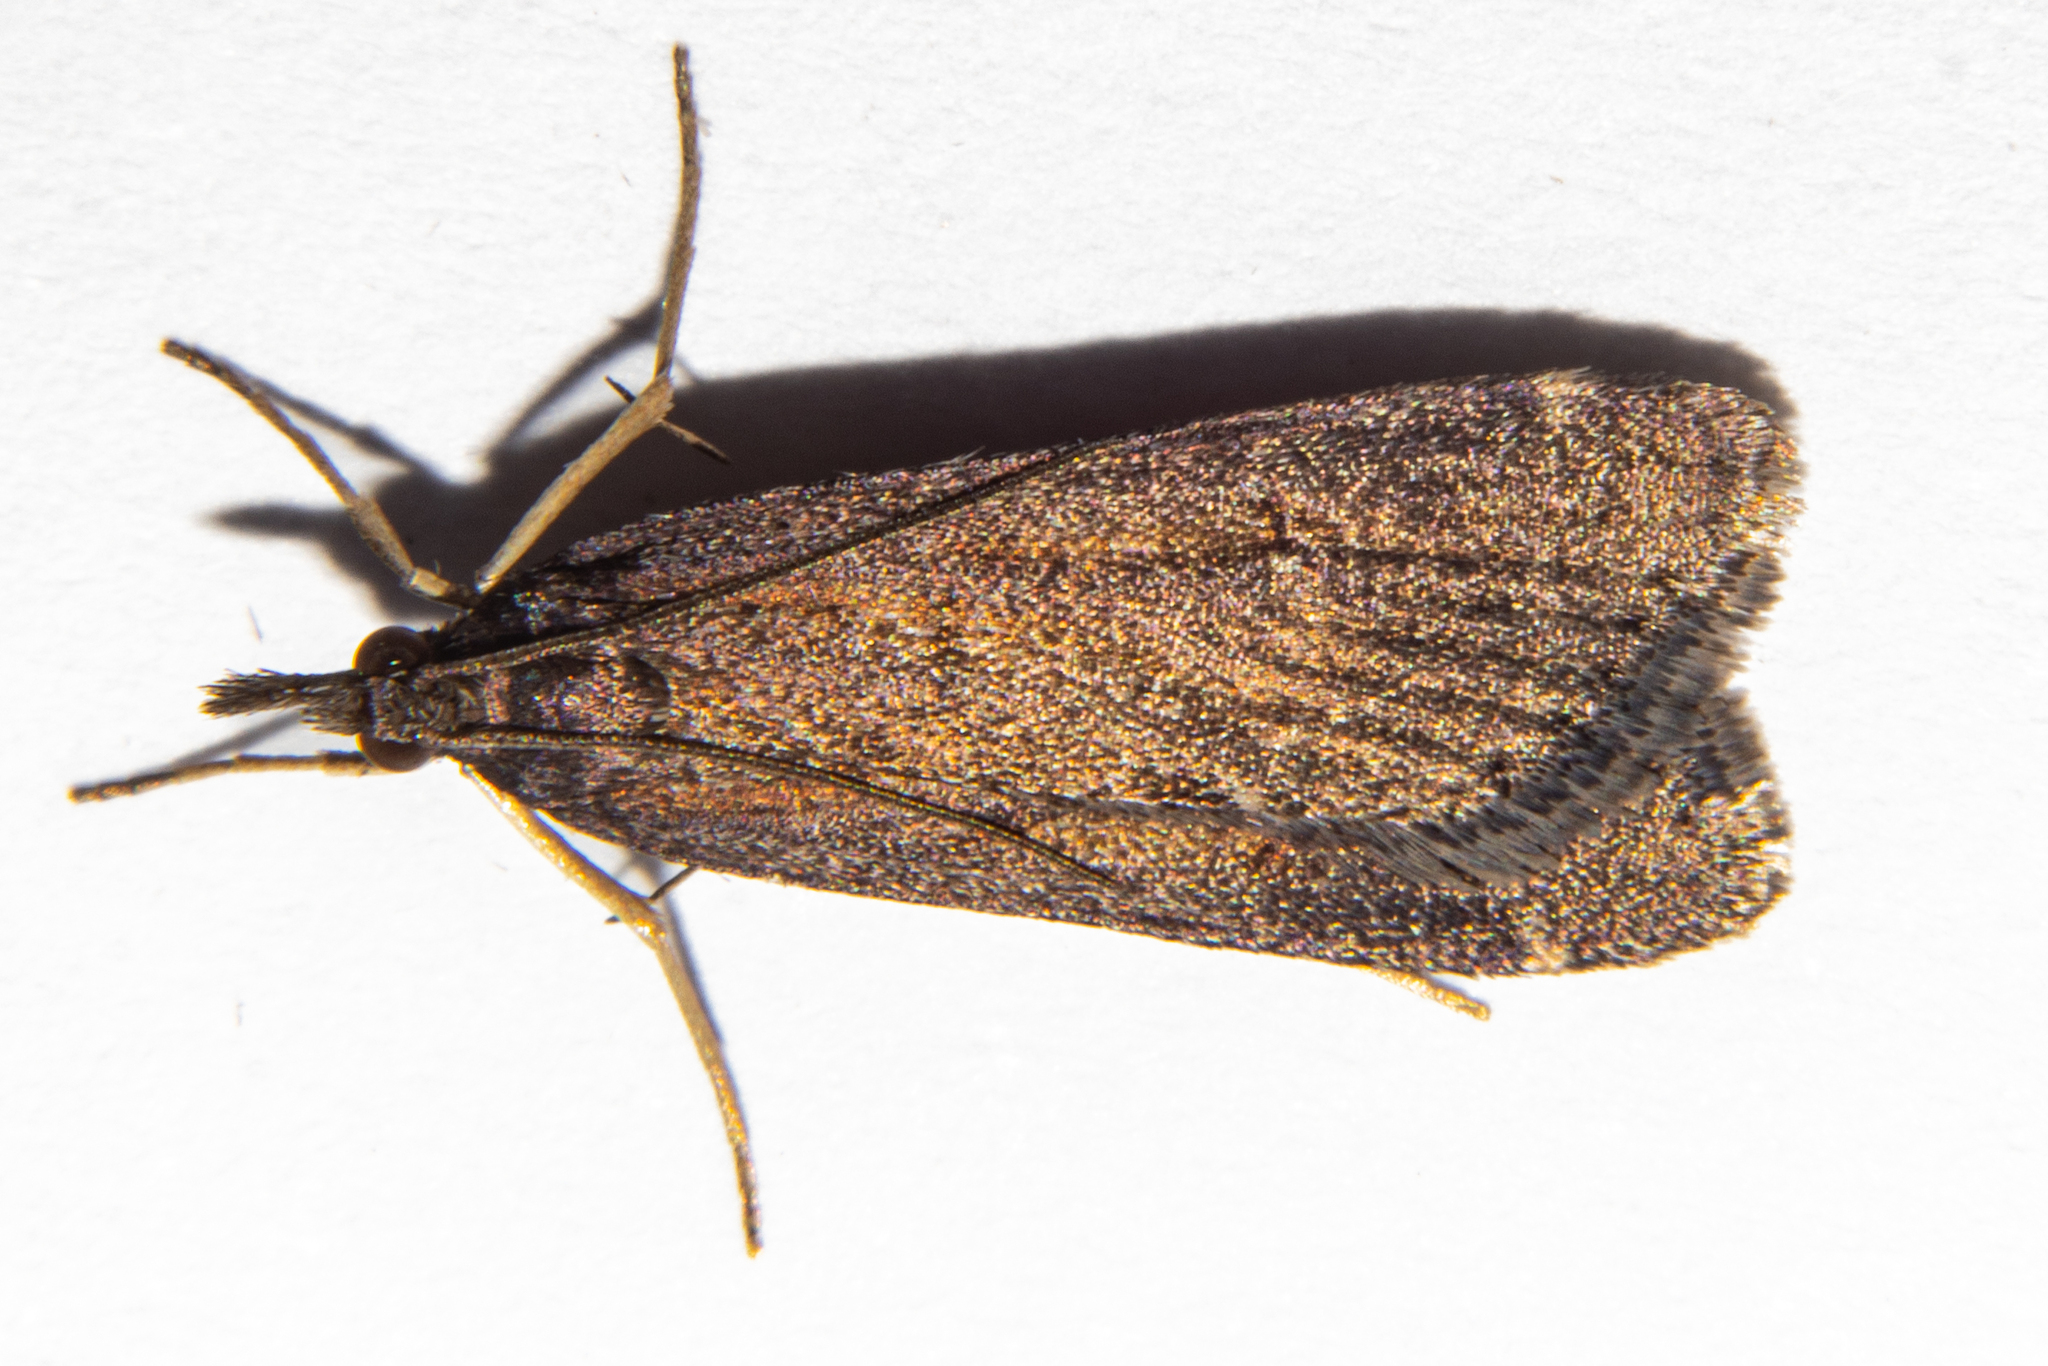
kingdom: Animalia
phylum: Arthropoda
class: Insecta
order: Lepidoptera
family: Crambidae
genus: Eudonia
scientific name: Eudonia oculata
